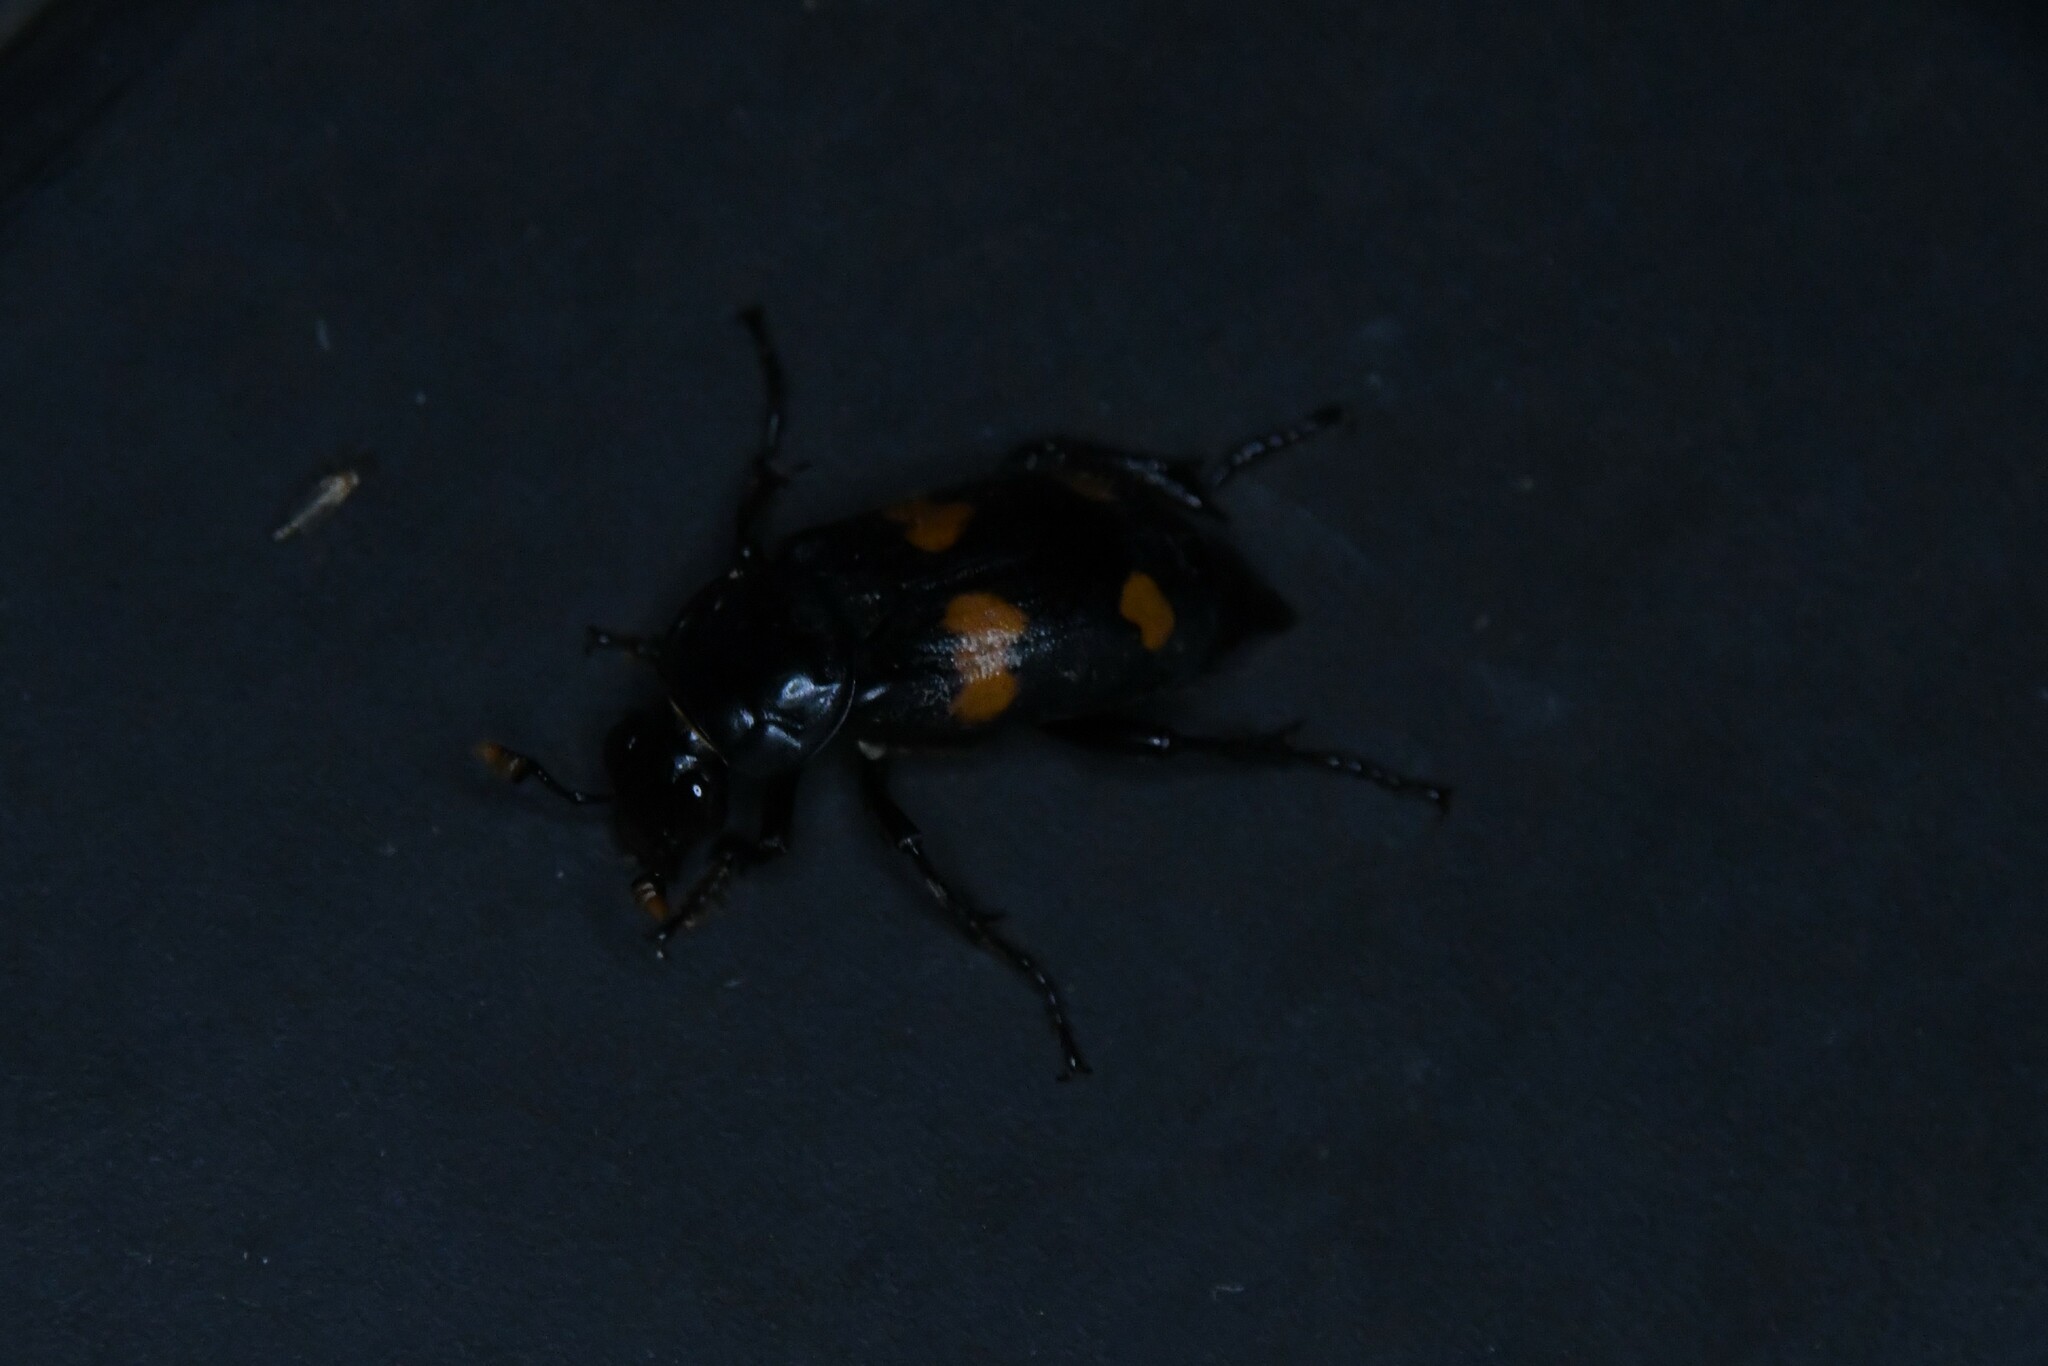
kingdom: Animalia
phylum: Arthropoda
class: Insecta
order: Coleoptera
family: Staphylinidae
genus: Nicrophorus
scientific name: Nicrophorus orbicollis
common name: Roundneck sexton beetle
